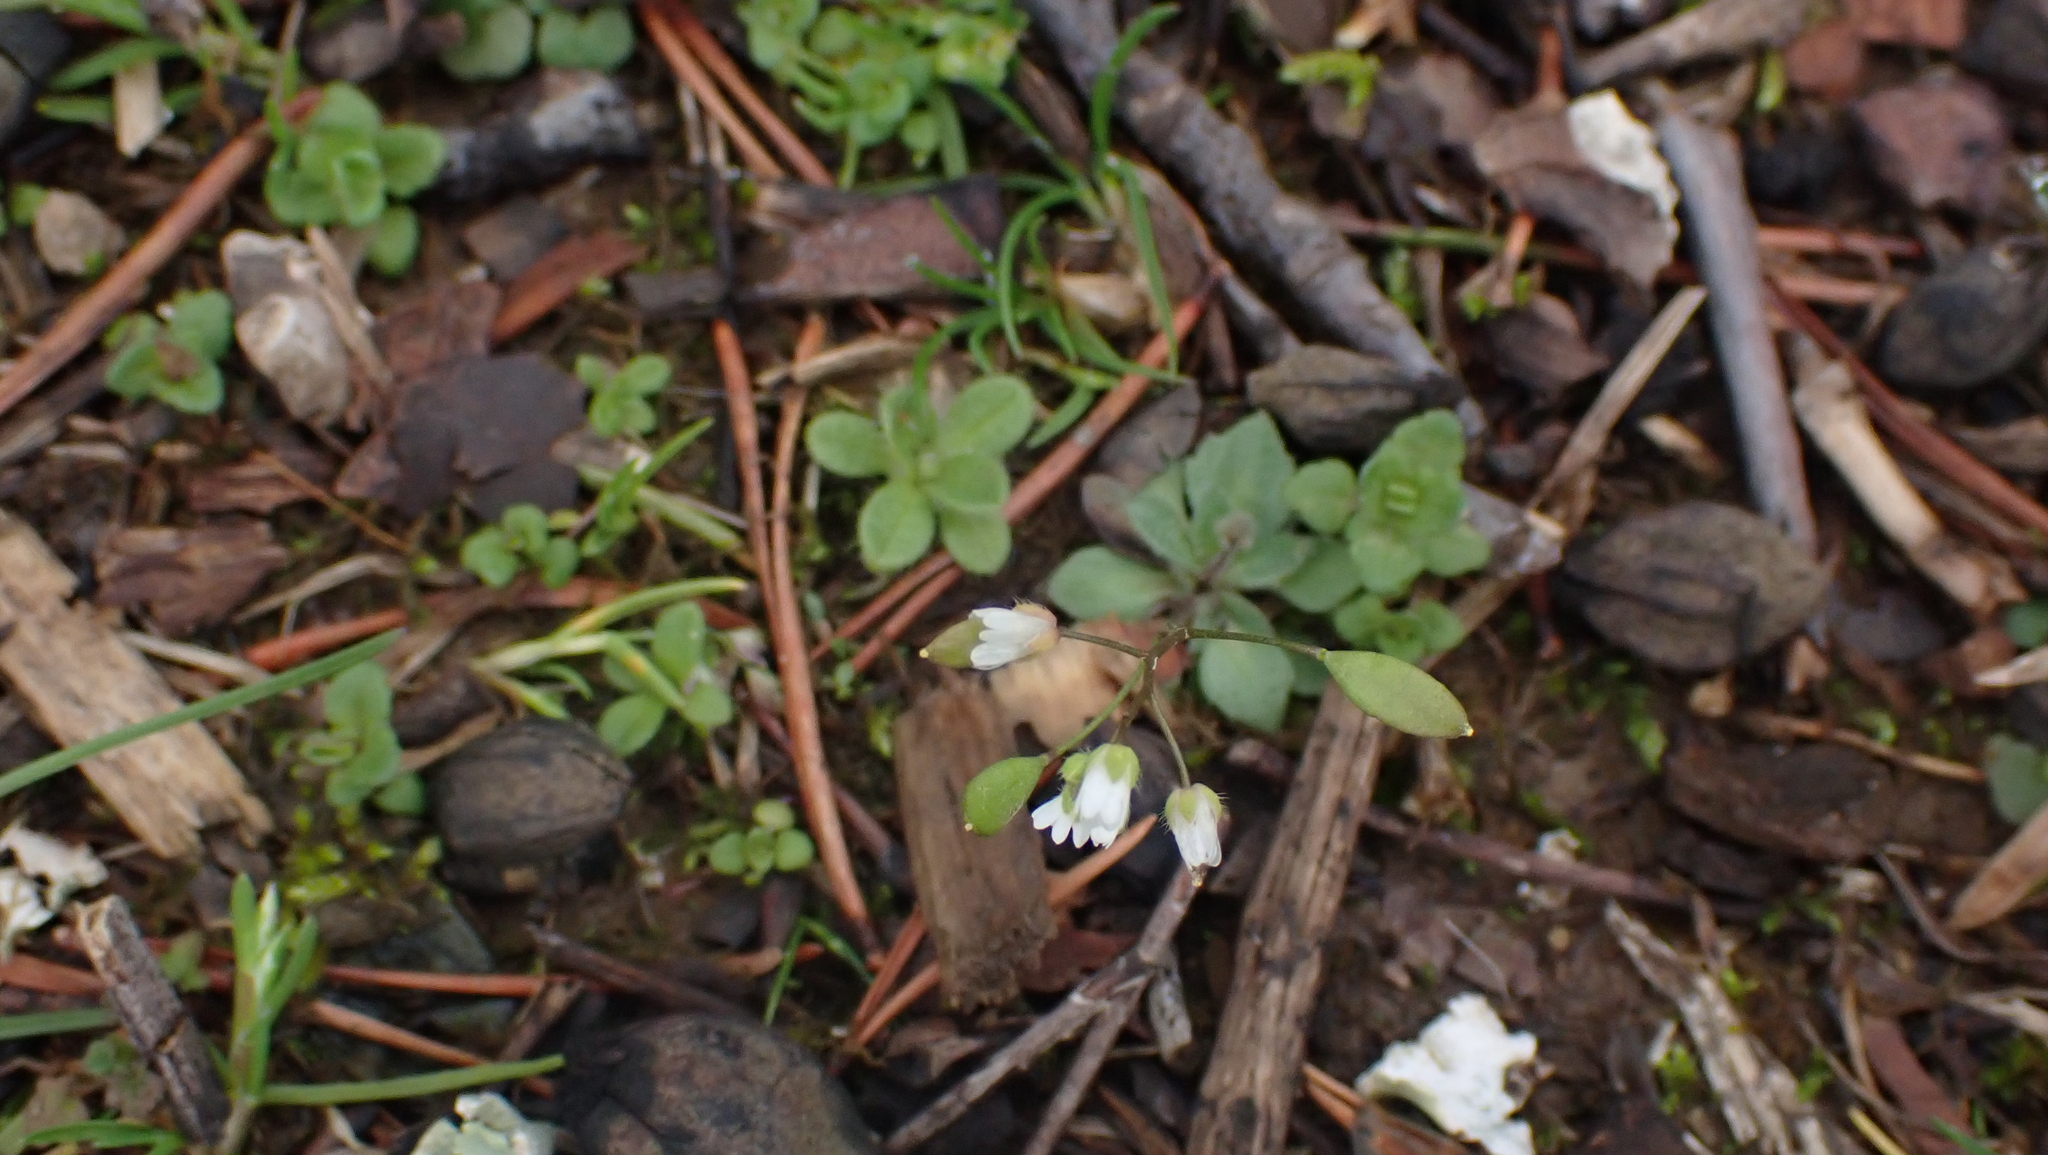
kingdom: Plantae
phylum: Tracheophyta
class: Magnoliopsida
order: Brassicales
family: Brassicaceae
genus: Draba
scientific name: Draba verna
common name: Spring draba
